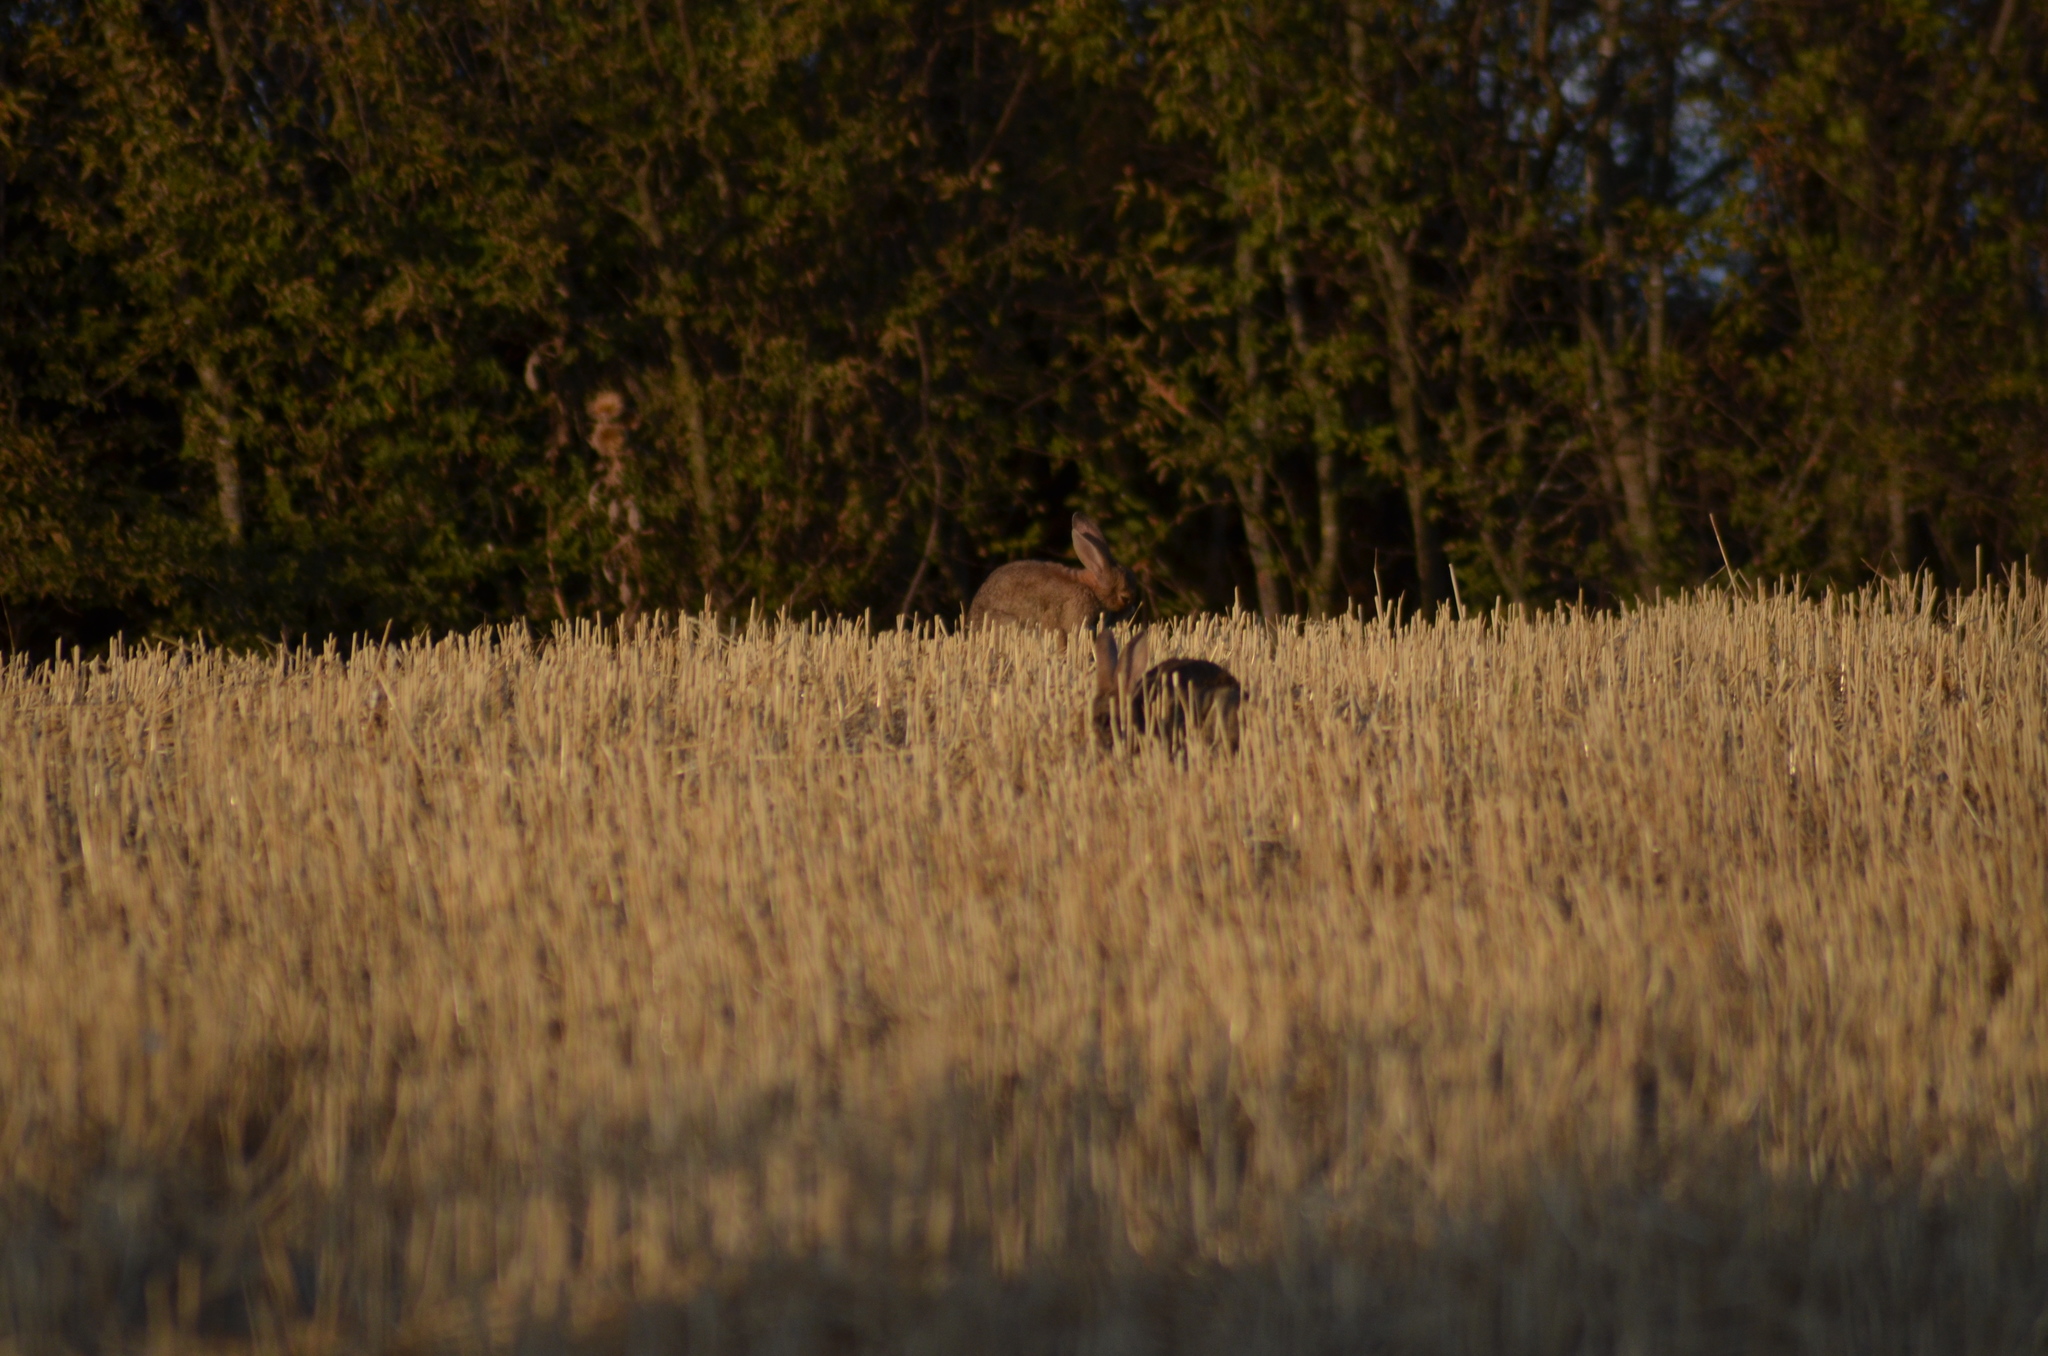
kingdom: Animalia
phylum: Chordata
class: Mammalia
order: Lagomorpha
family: Leporidae
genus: Oryctolagus
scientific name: Oryctolagus cuniculus
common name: European rabbit
